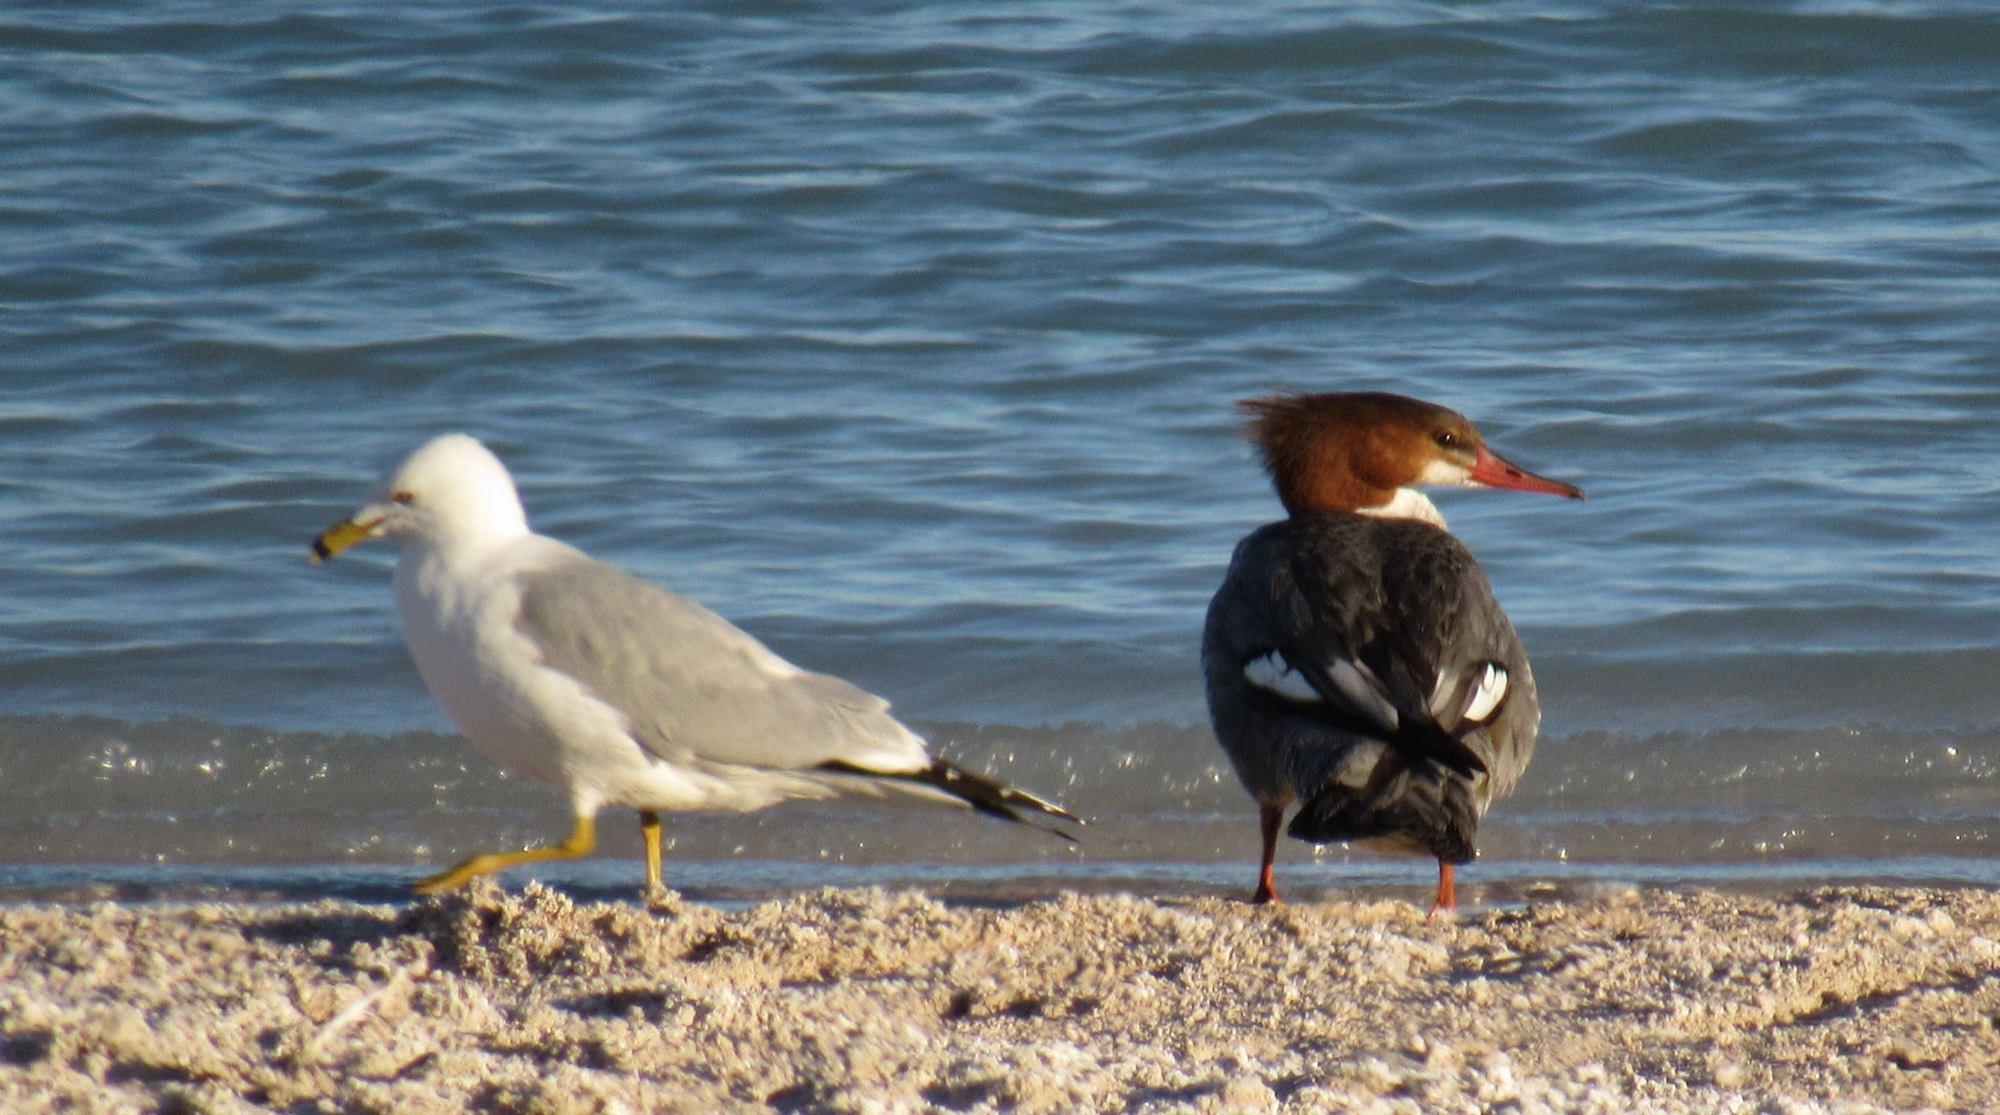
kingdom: Animalia
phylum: Chordata
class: Aves
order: Anseriformes
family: Anatidae
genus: Mergus
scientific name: Mergus merganser
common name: Common merganser
